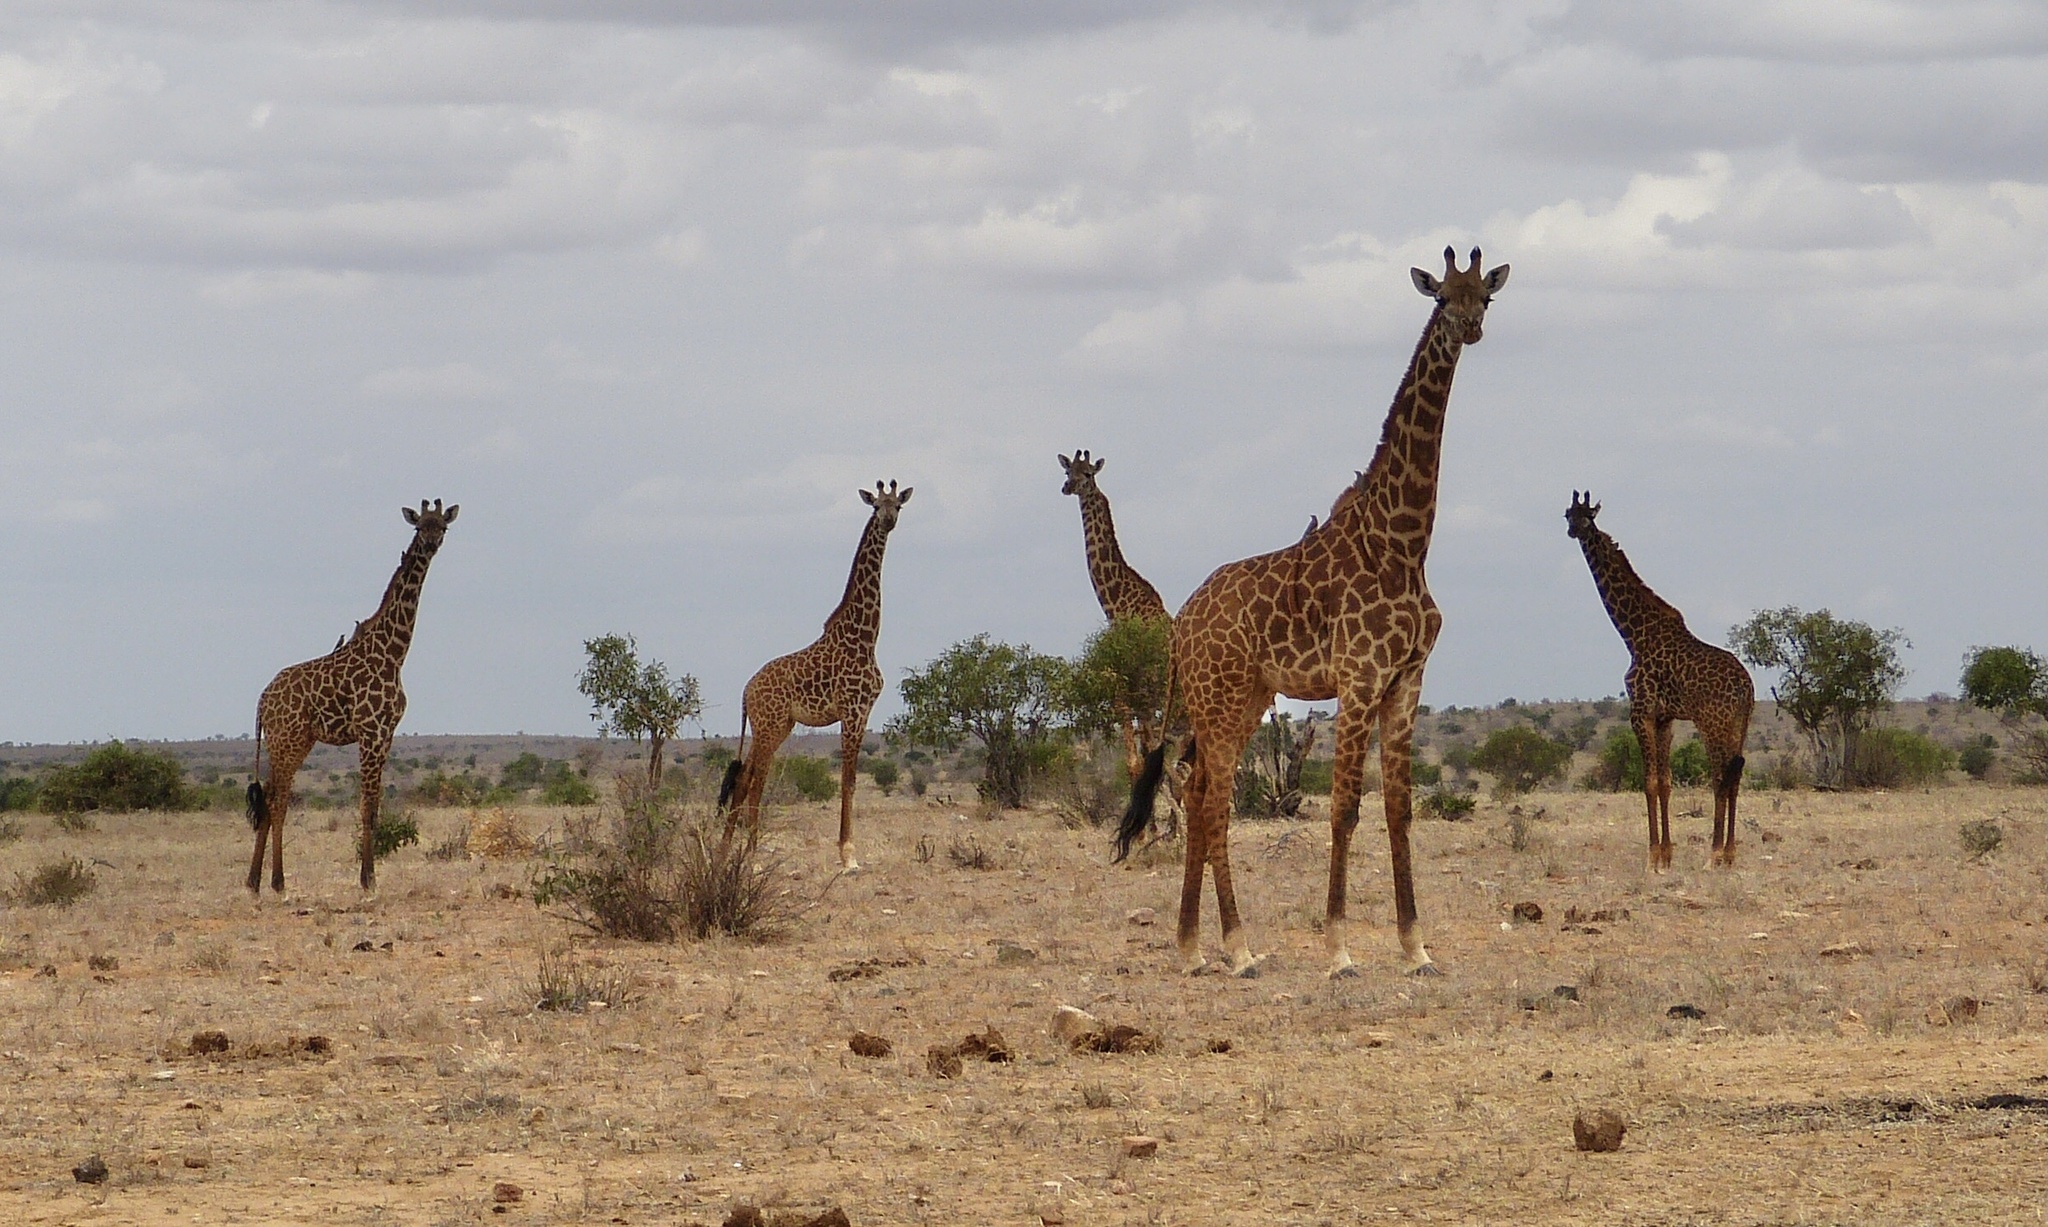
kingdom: Animalia
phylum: Chordata
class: Mammalia
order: Artiodactyla
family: Giraffidae
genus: Giraffa
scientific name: Giraffa tippelskirchi
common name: Masai giraffe
